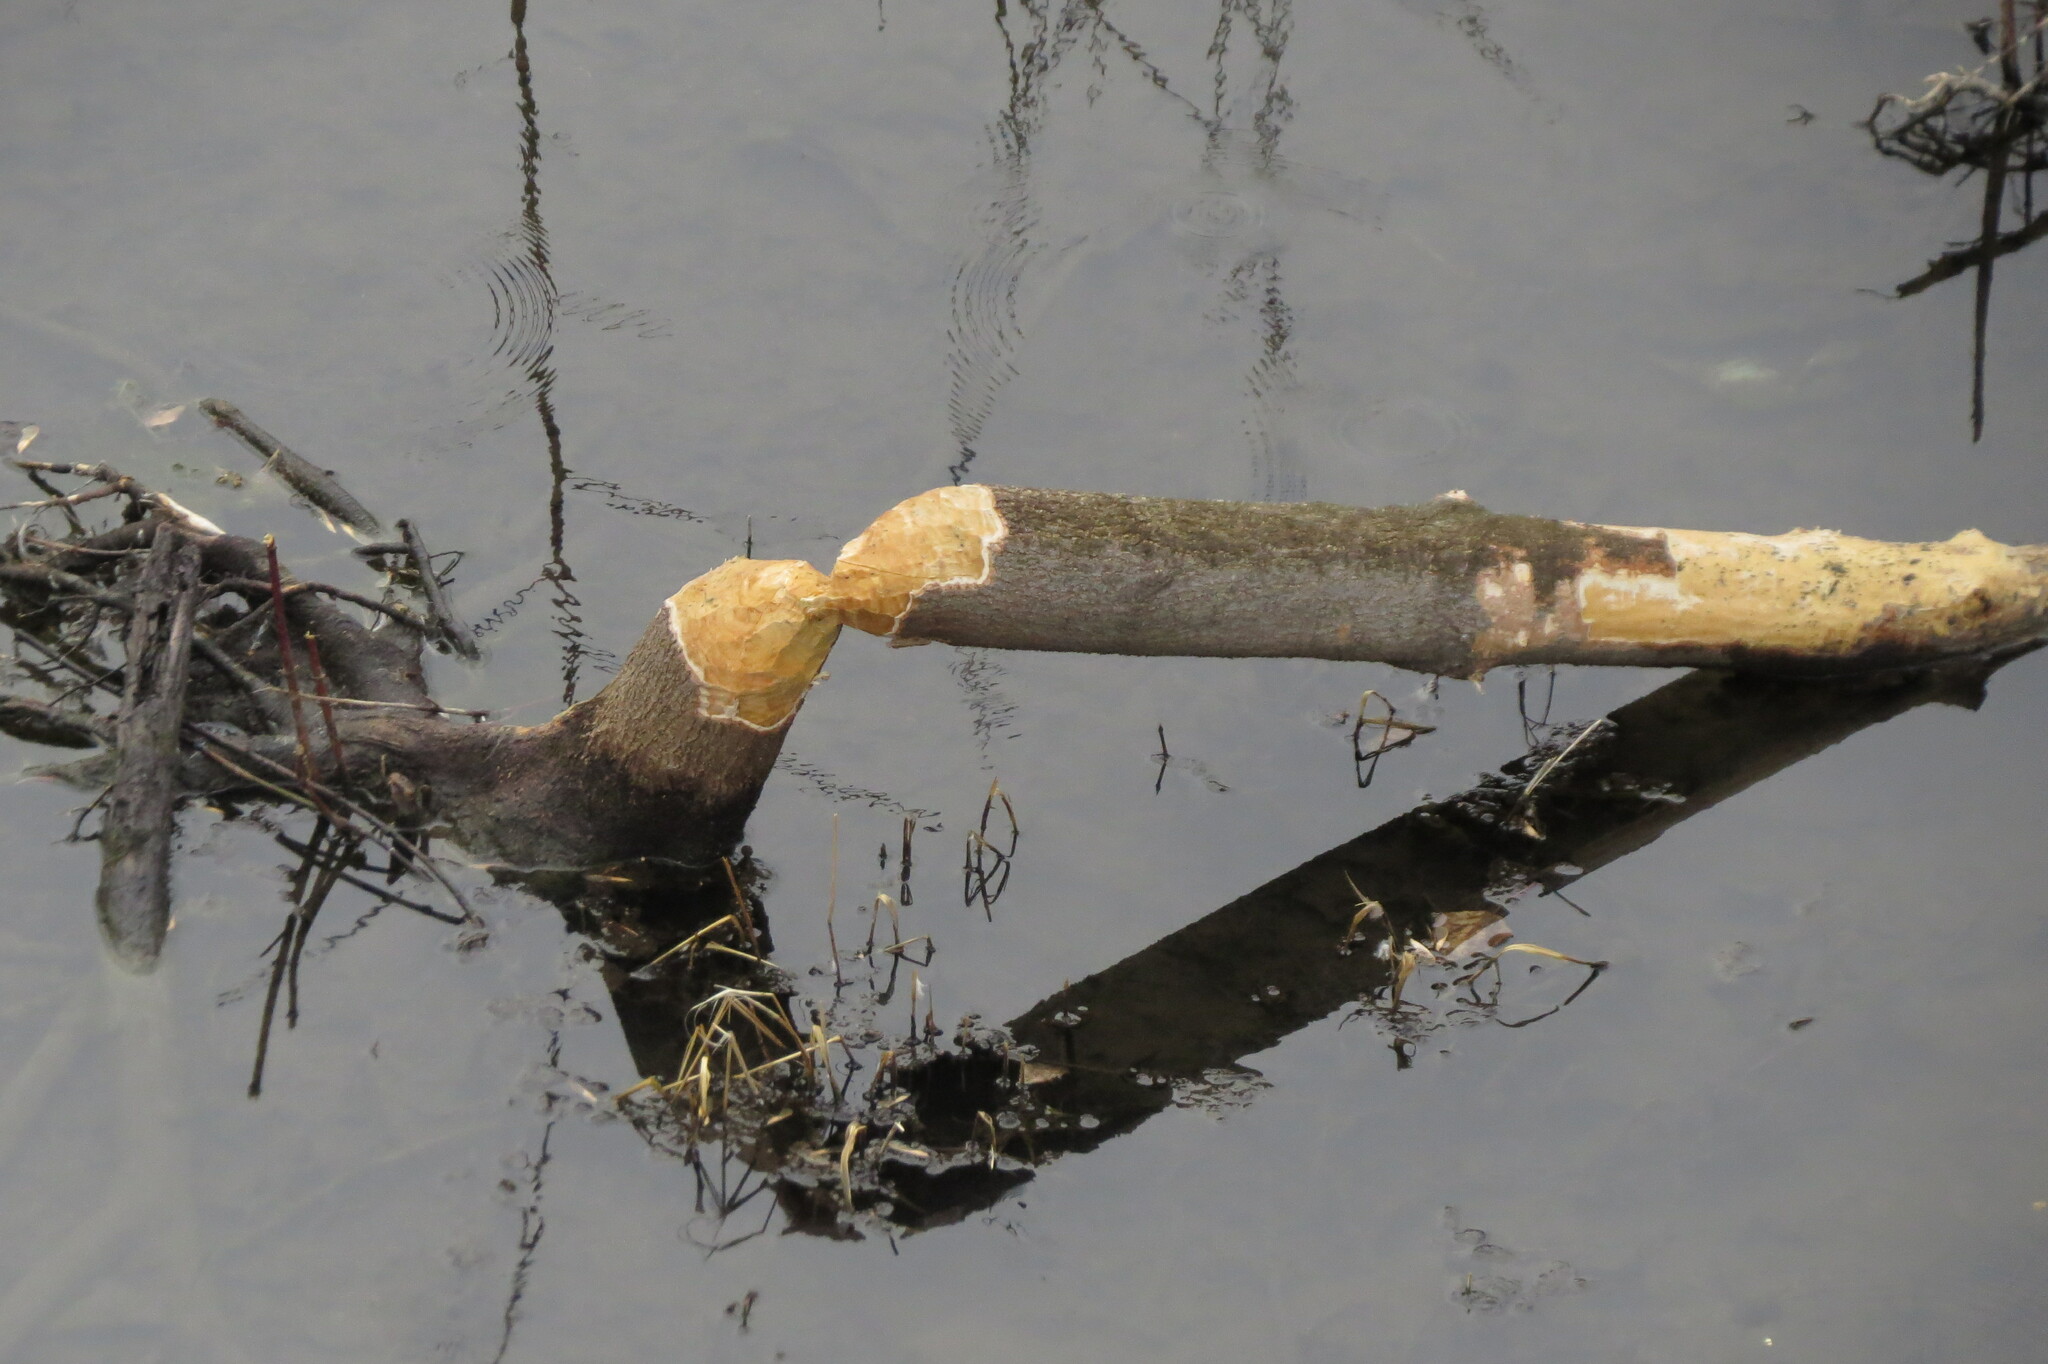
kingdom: Animalia
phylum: Chordata
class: Mammalia
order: Rodentia
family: Castoridae
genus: Castor
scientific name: Castor fiber
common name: Eurasian beaver
